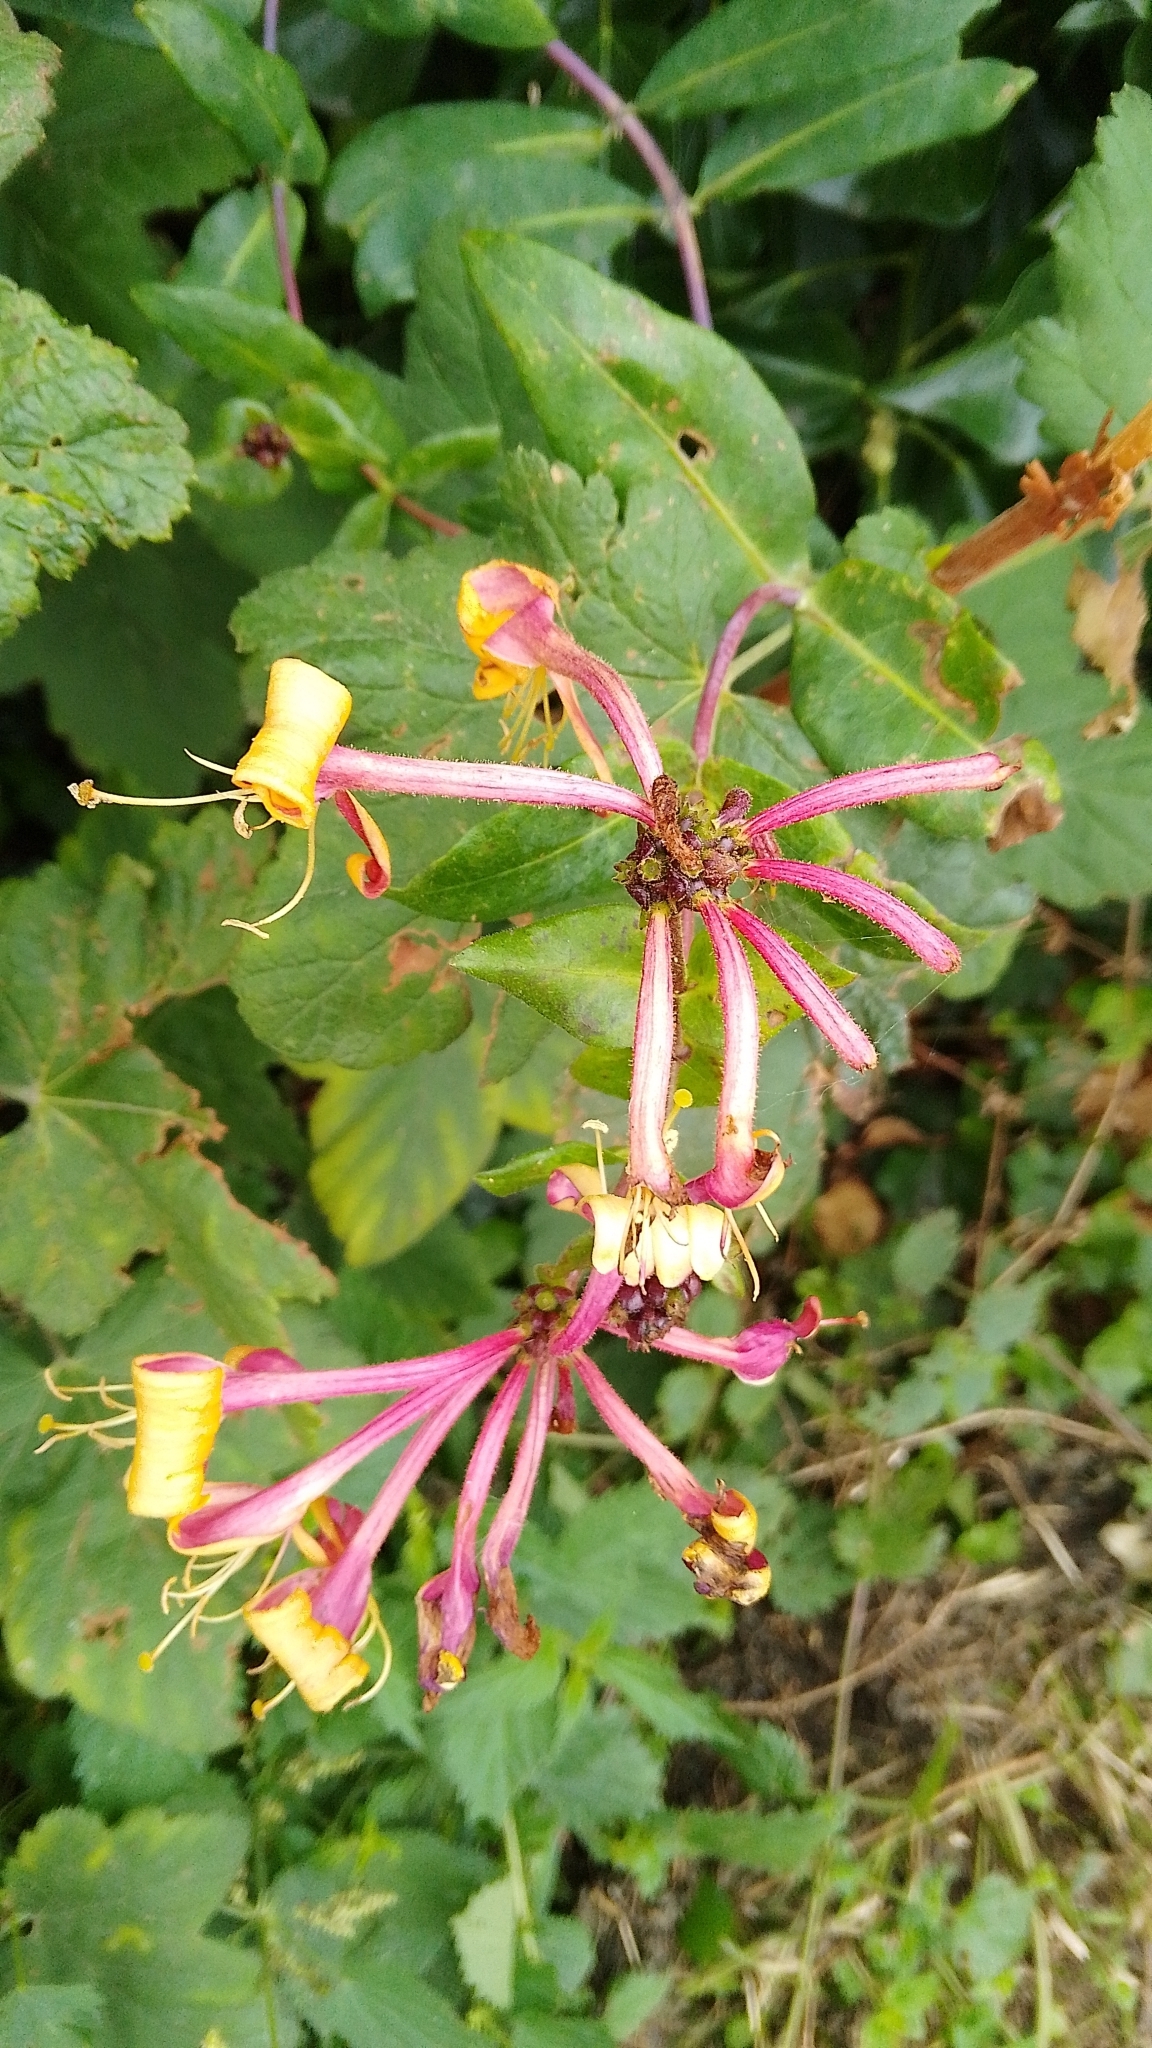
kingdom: Plantae
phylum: Tracheophyta
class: Magnoliopsida
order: Dipsacales
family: Caprifoliaceae
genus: Lonicera
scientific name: Lonicera periclymenum
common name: European honeysuckle
